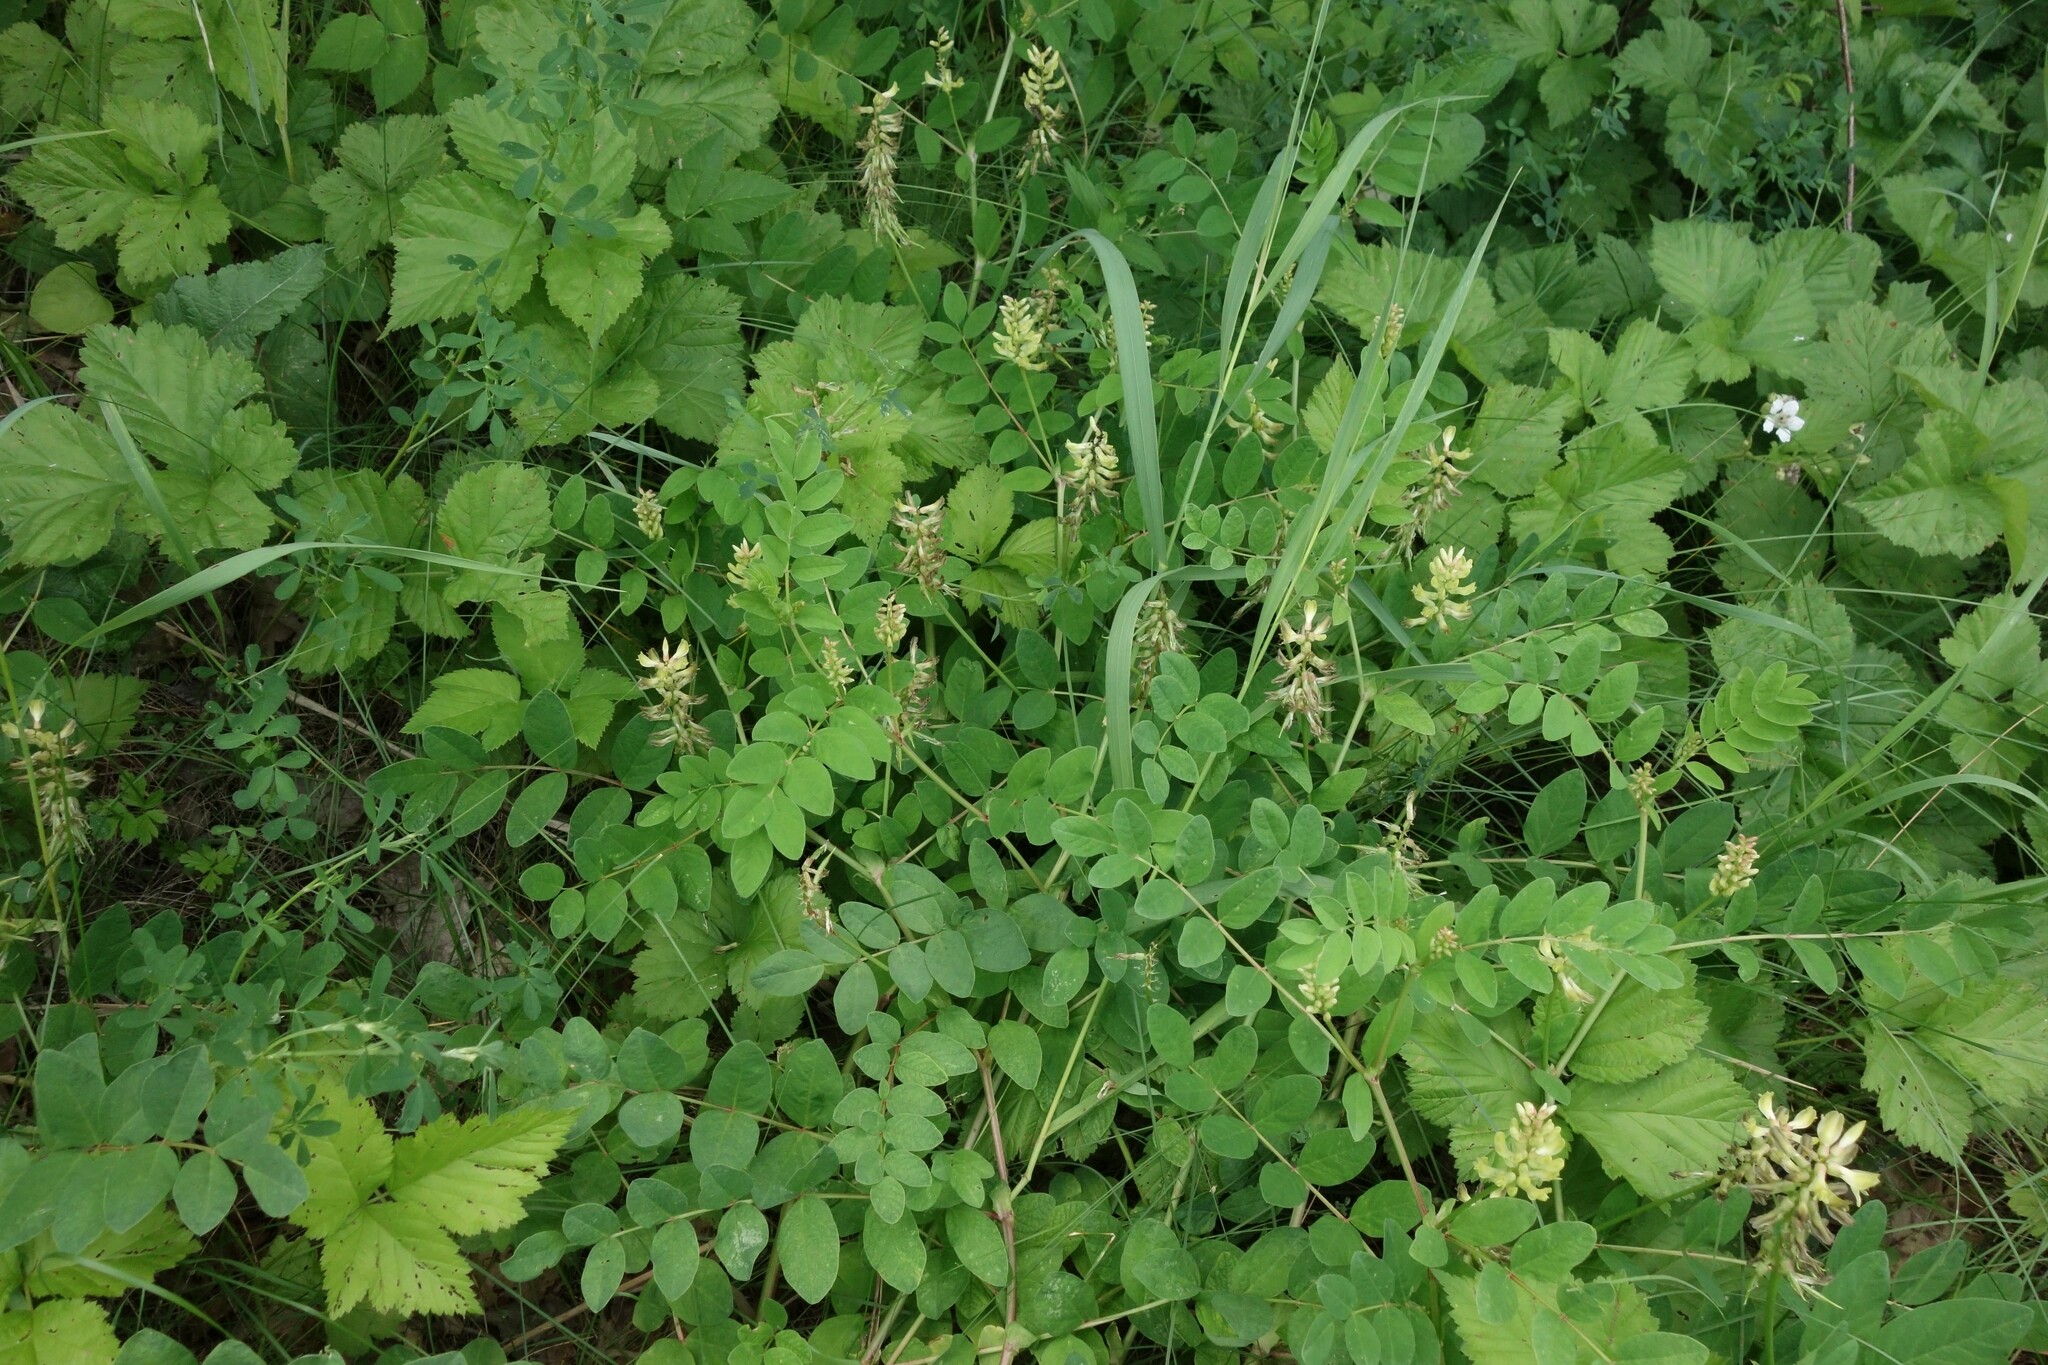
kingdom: Plantae
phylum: Tracheophyta
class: Magnoliopsida
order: Fabales
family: Fabaceae
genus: Astragalus
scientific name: Astragalus glycyphyllos
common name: Wild liquorice
